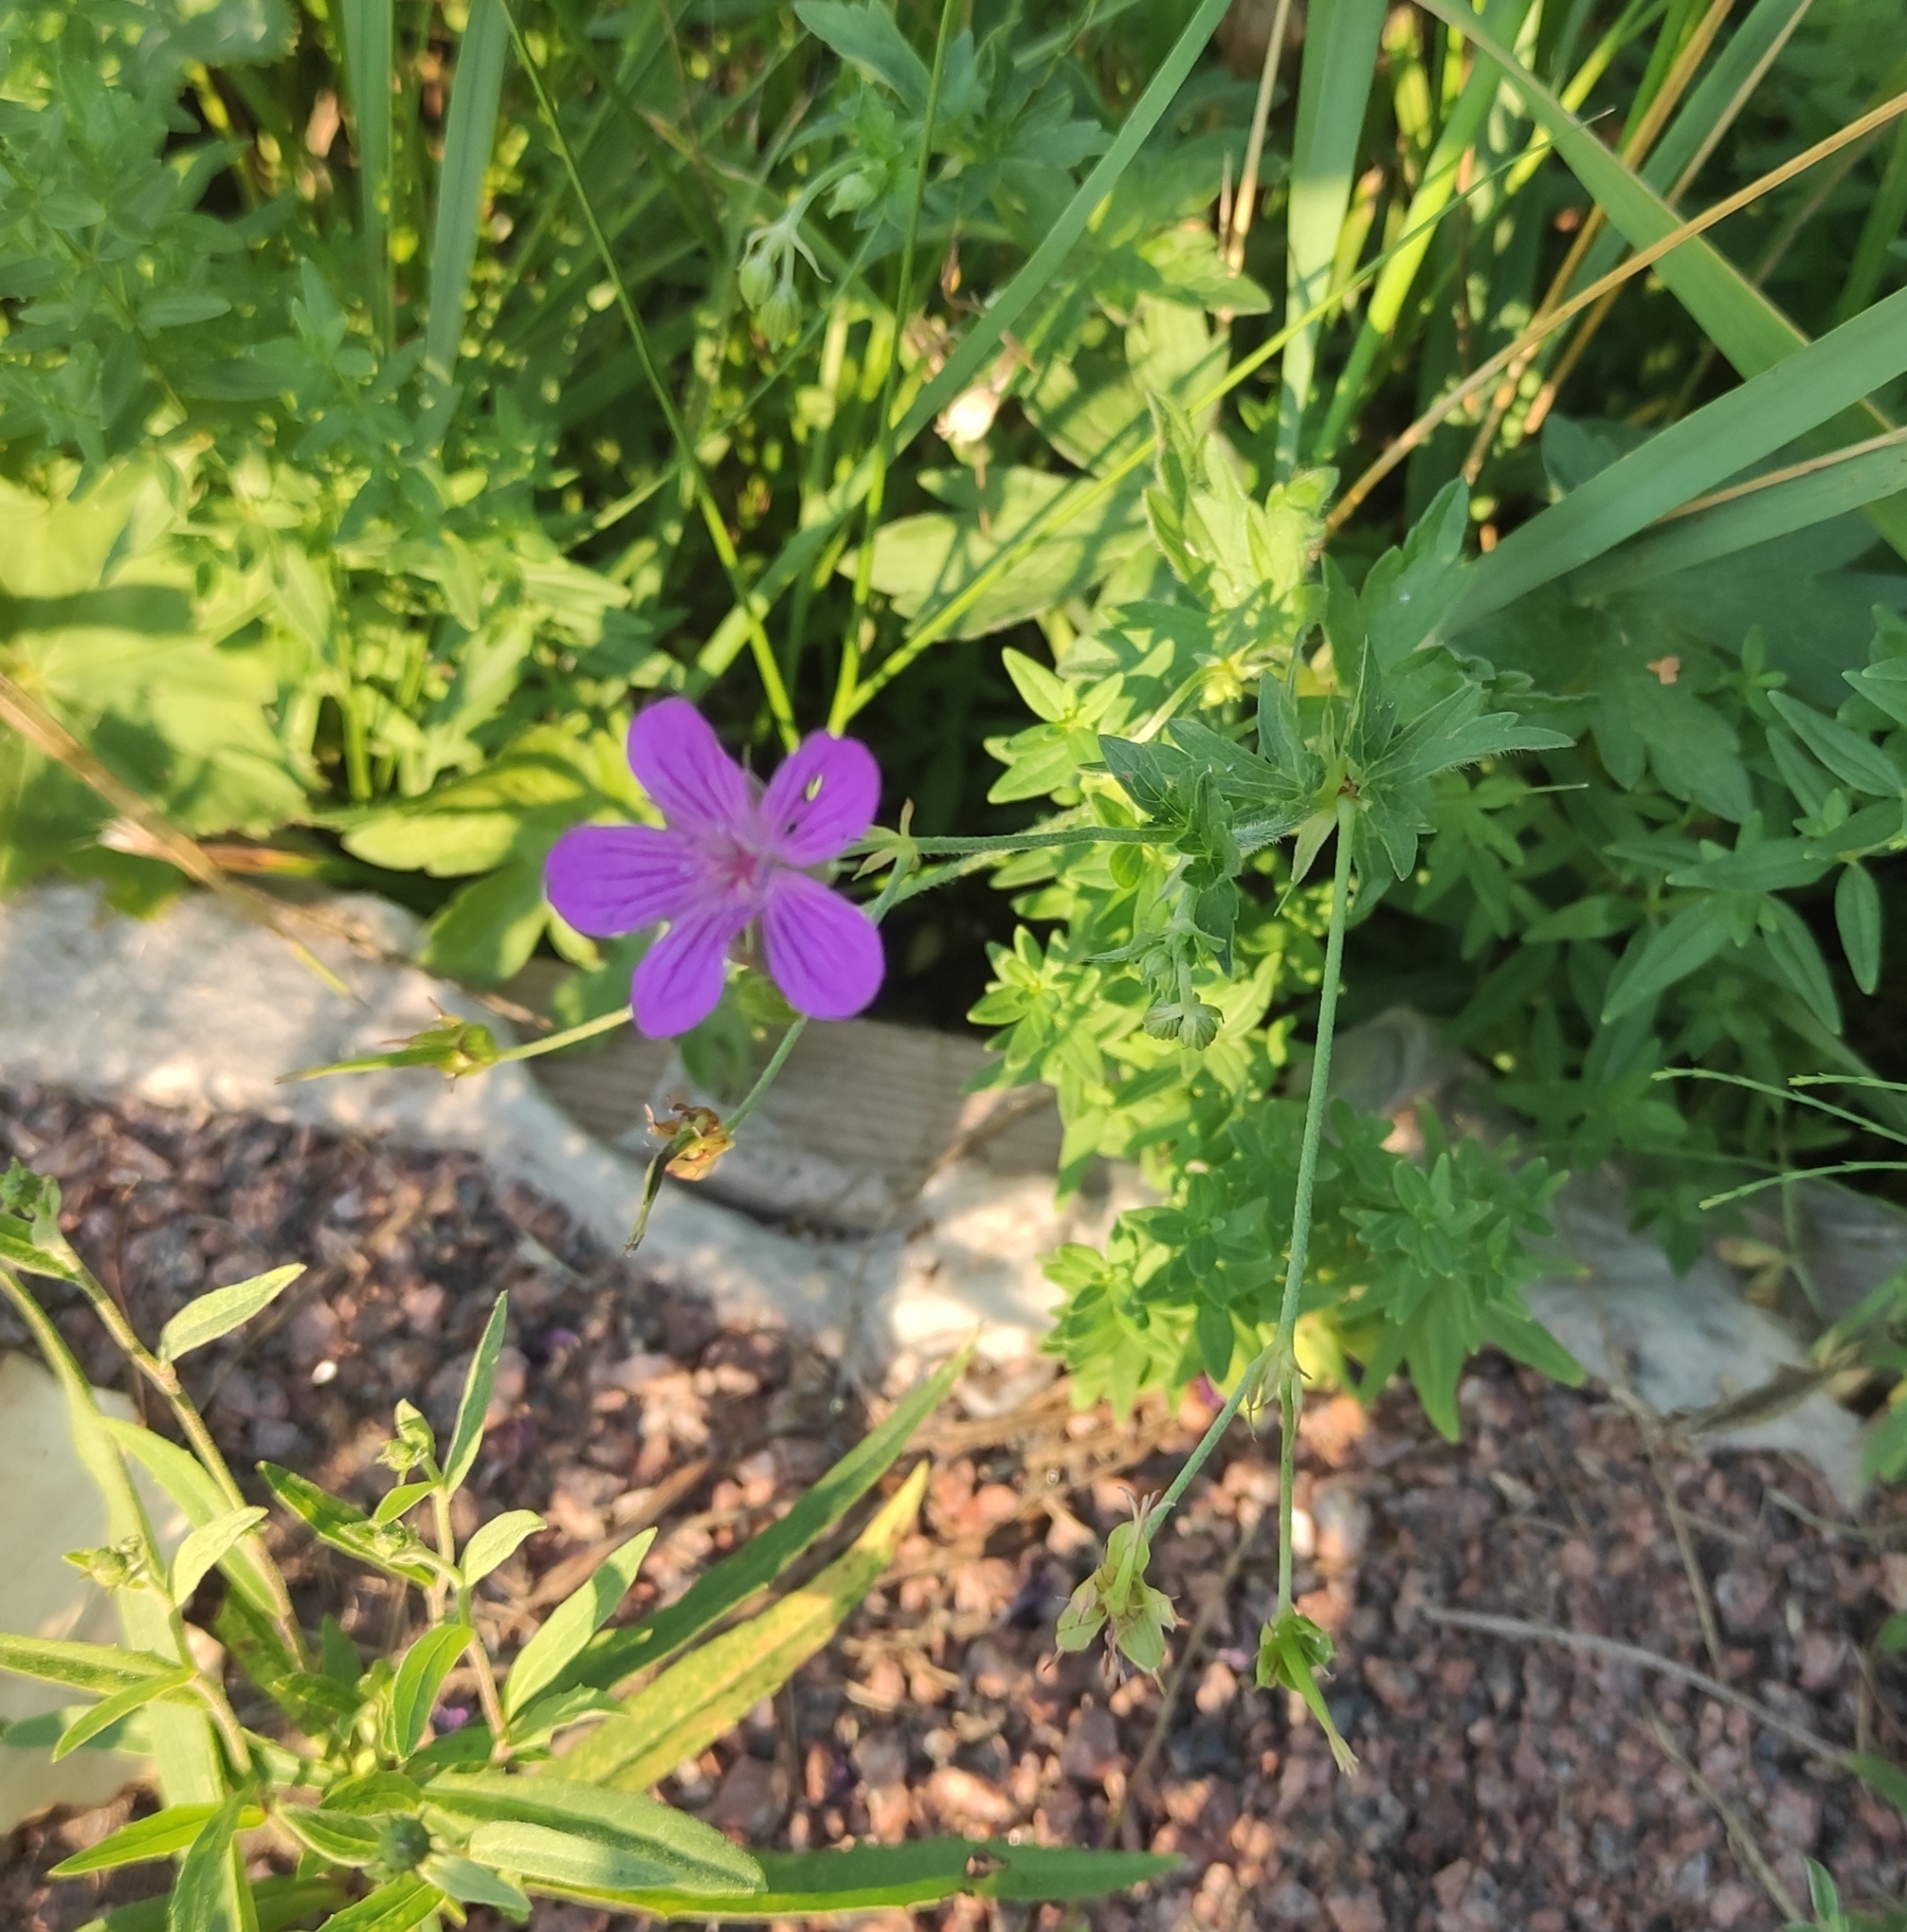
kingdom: Plantae
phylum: Tracheophyta
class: Magnoliopsida
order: Geraniales
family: Geraniaceae
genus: Geranium
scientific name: Geranium palustre
